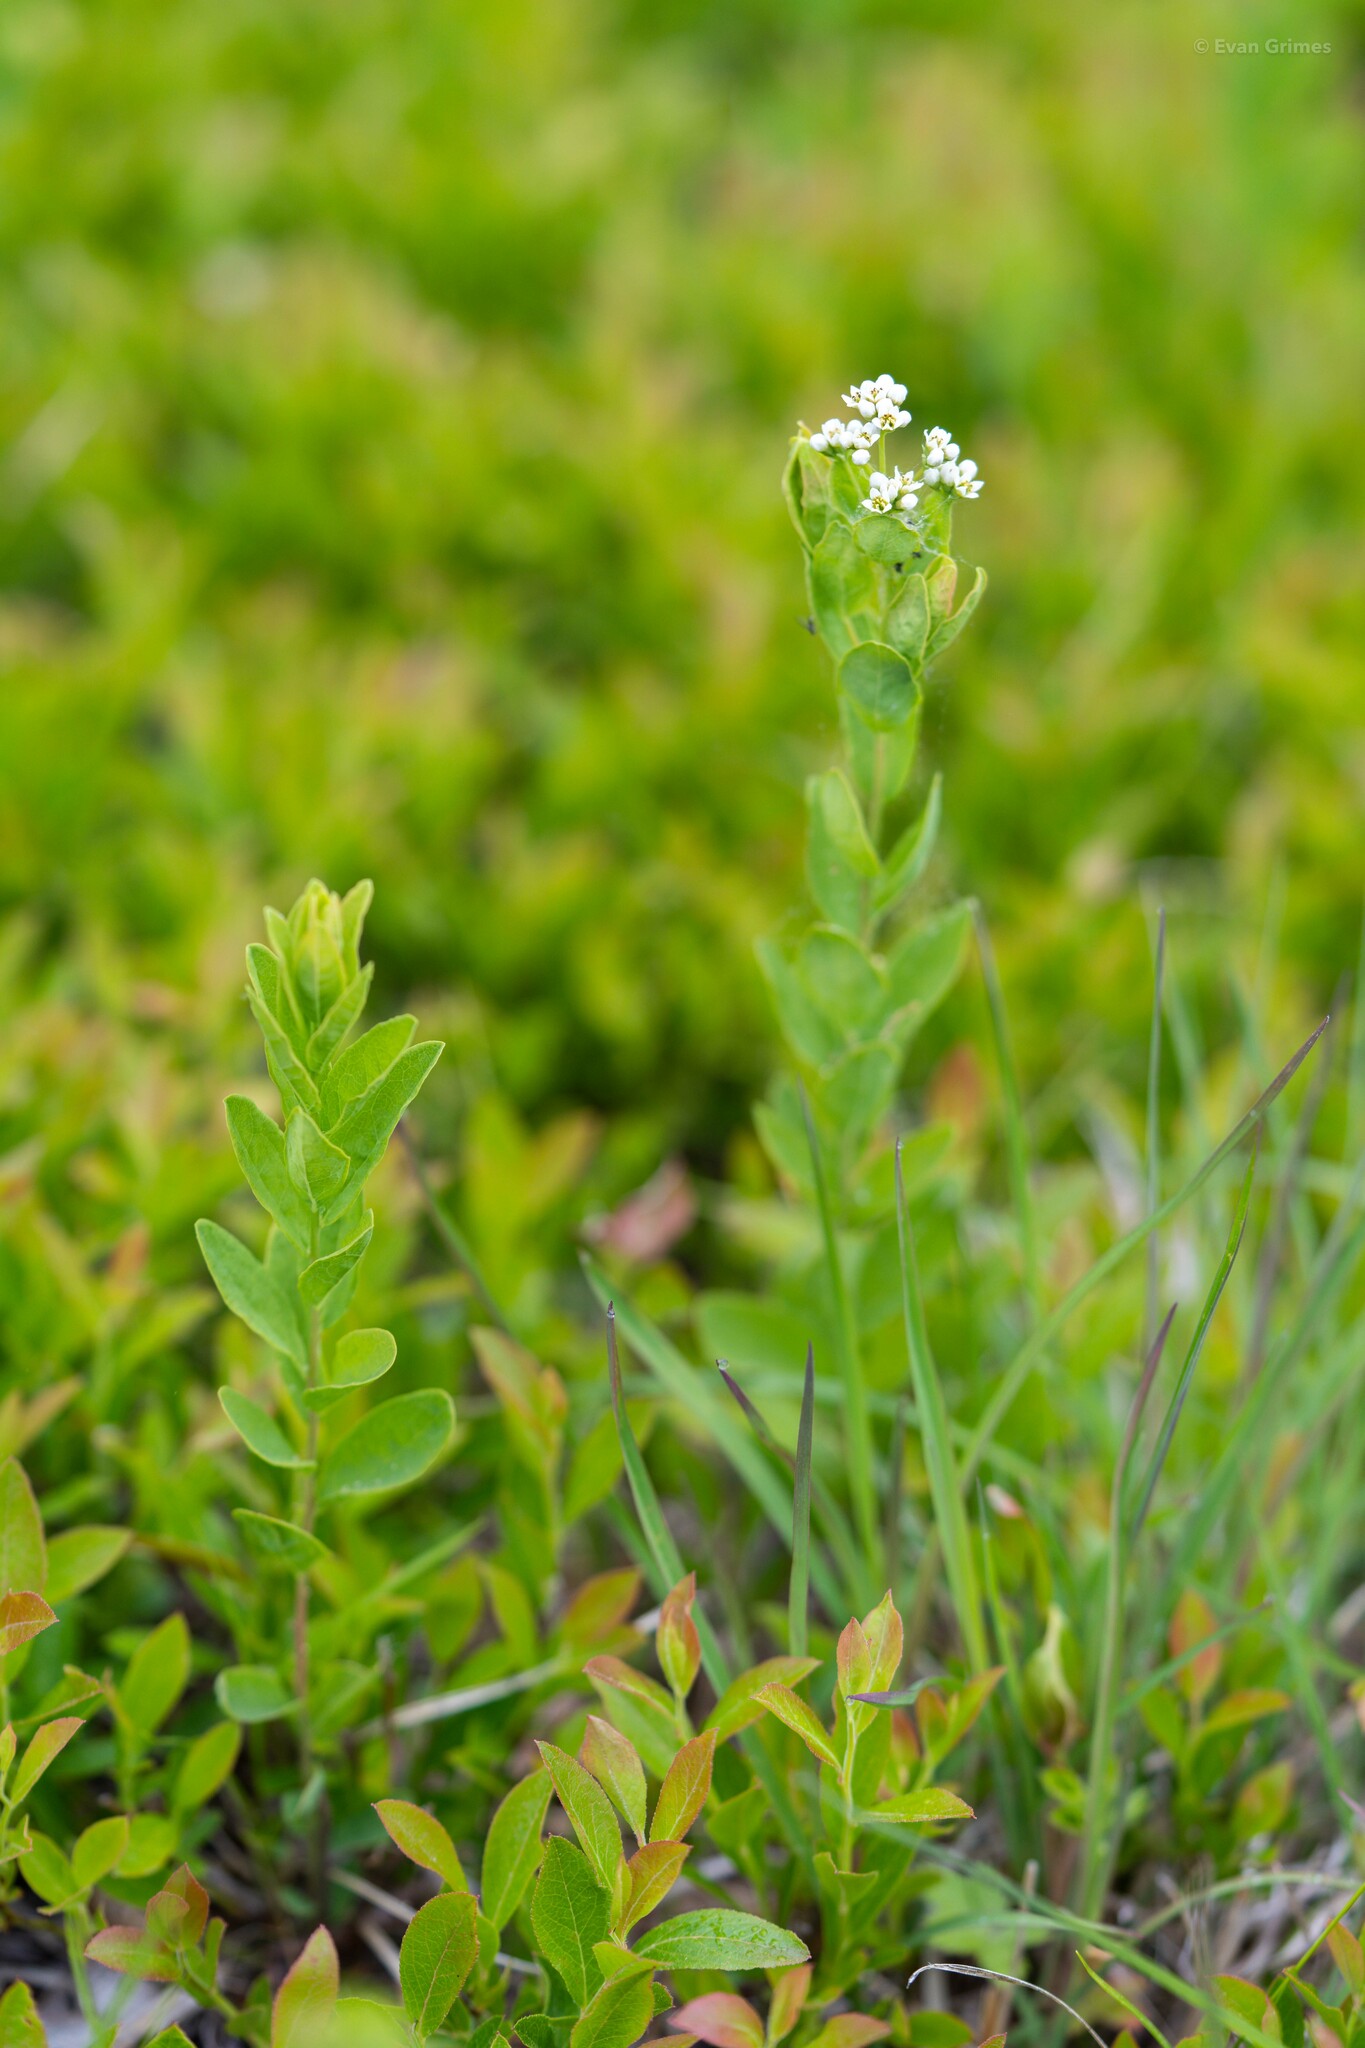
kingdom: Plantae
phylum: Tracheophyta
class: Magnoliopsida
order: Santalales
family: Comandraceae
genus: Comandra
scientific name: Comandra umbellata
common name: Bastard toadflax
